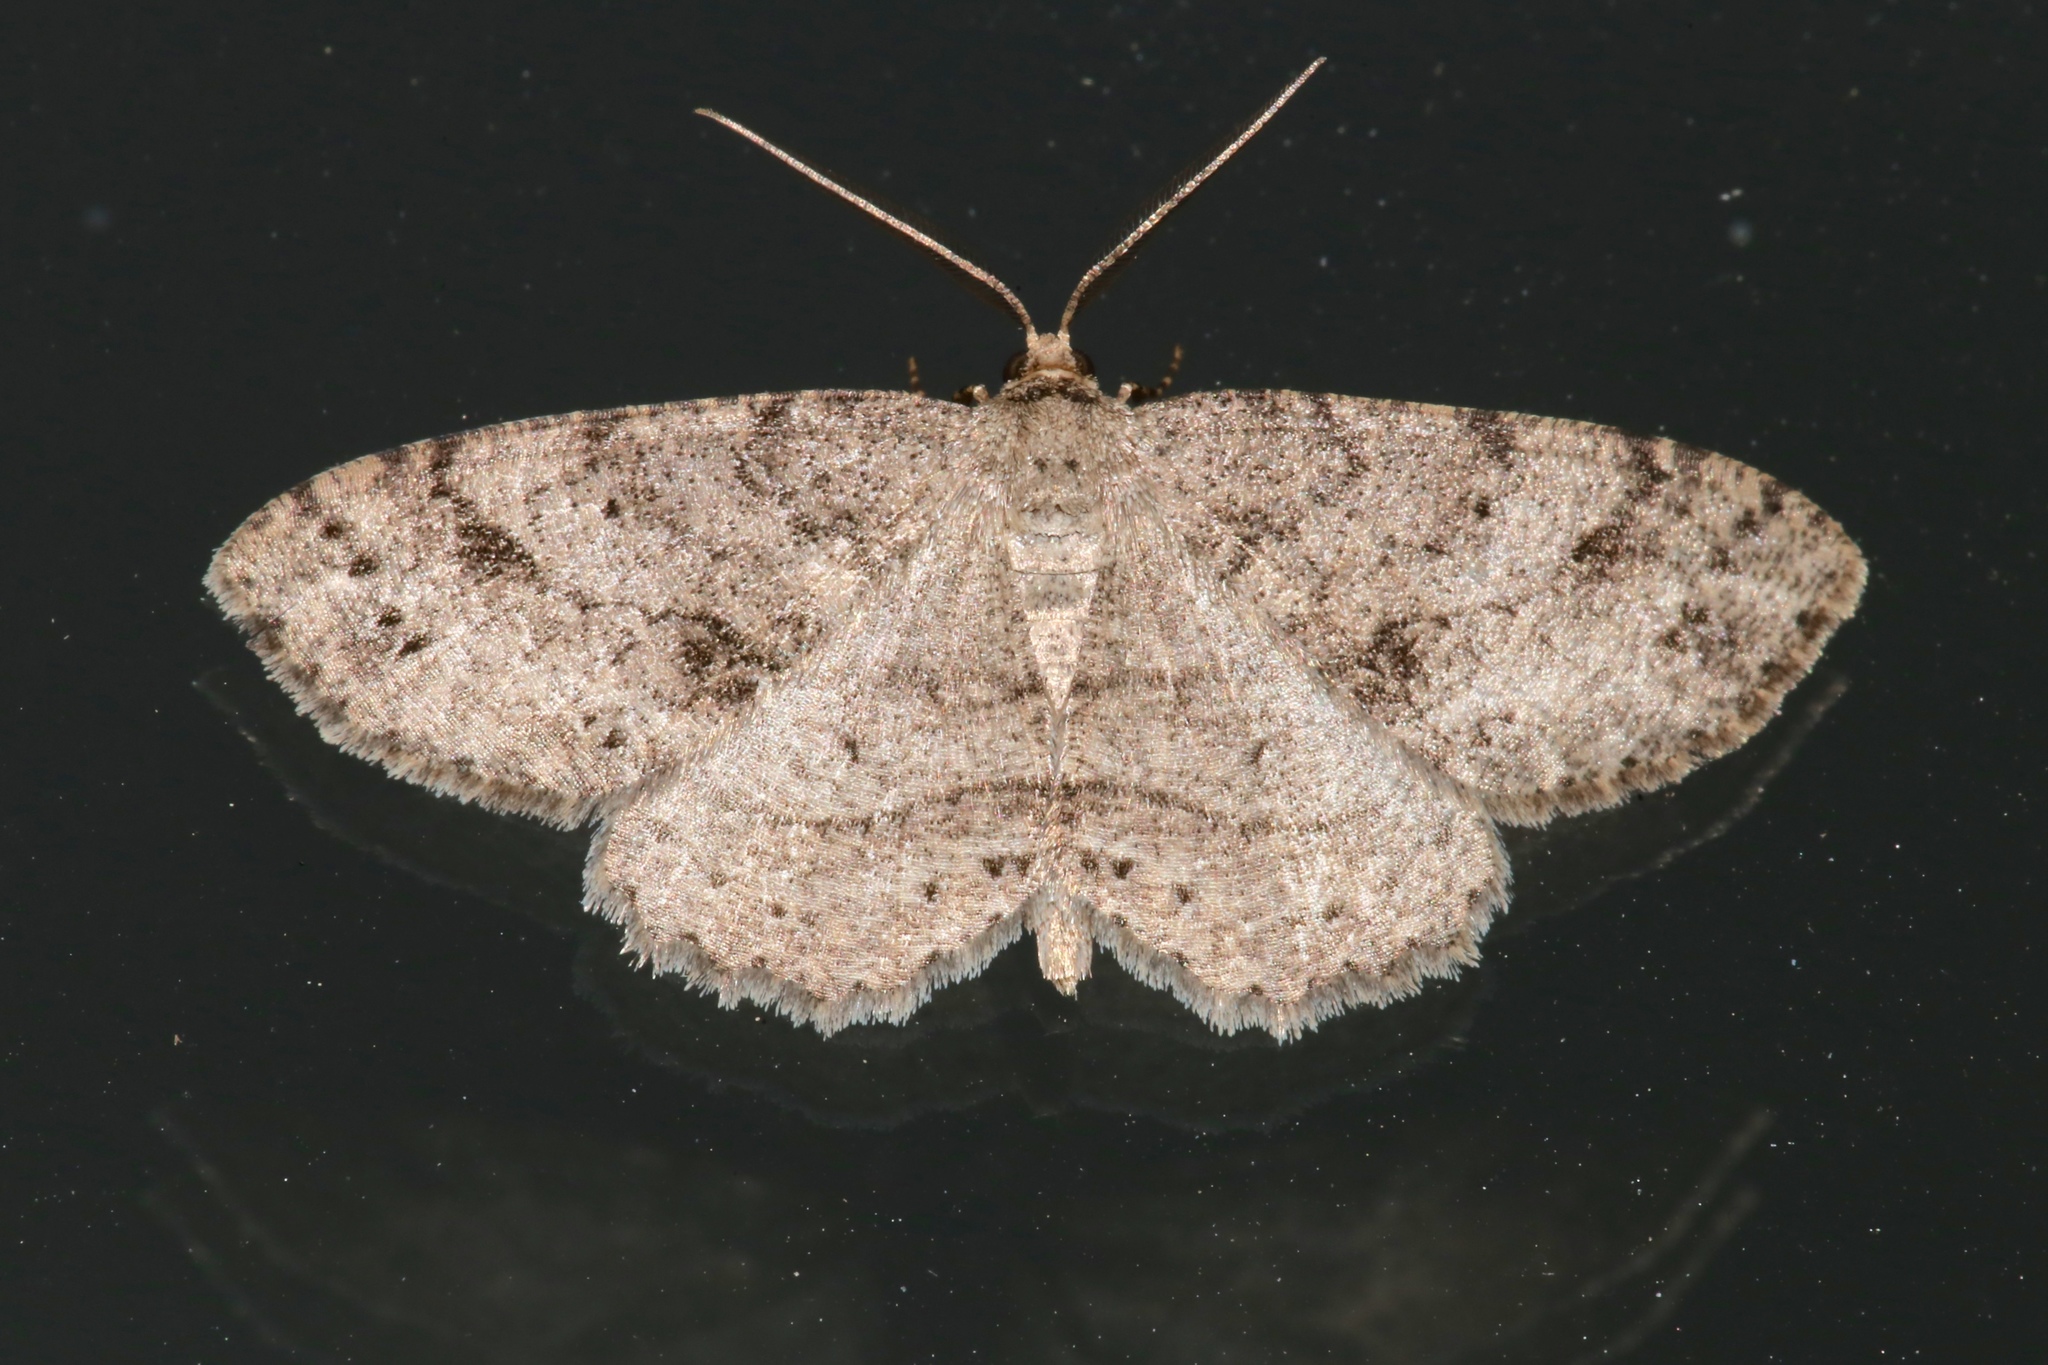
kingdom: Animalia
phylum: Arthropoda
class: Insecta
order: Lepidoptera
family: Geometridae
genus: Melanolophia
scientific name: Melanolophia canadaria
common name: Canadian melanolophia
